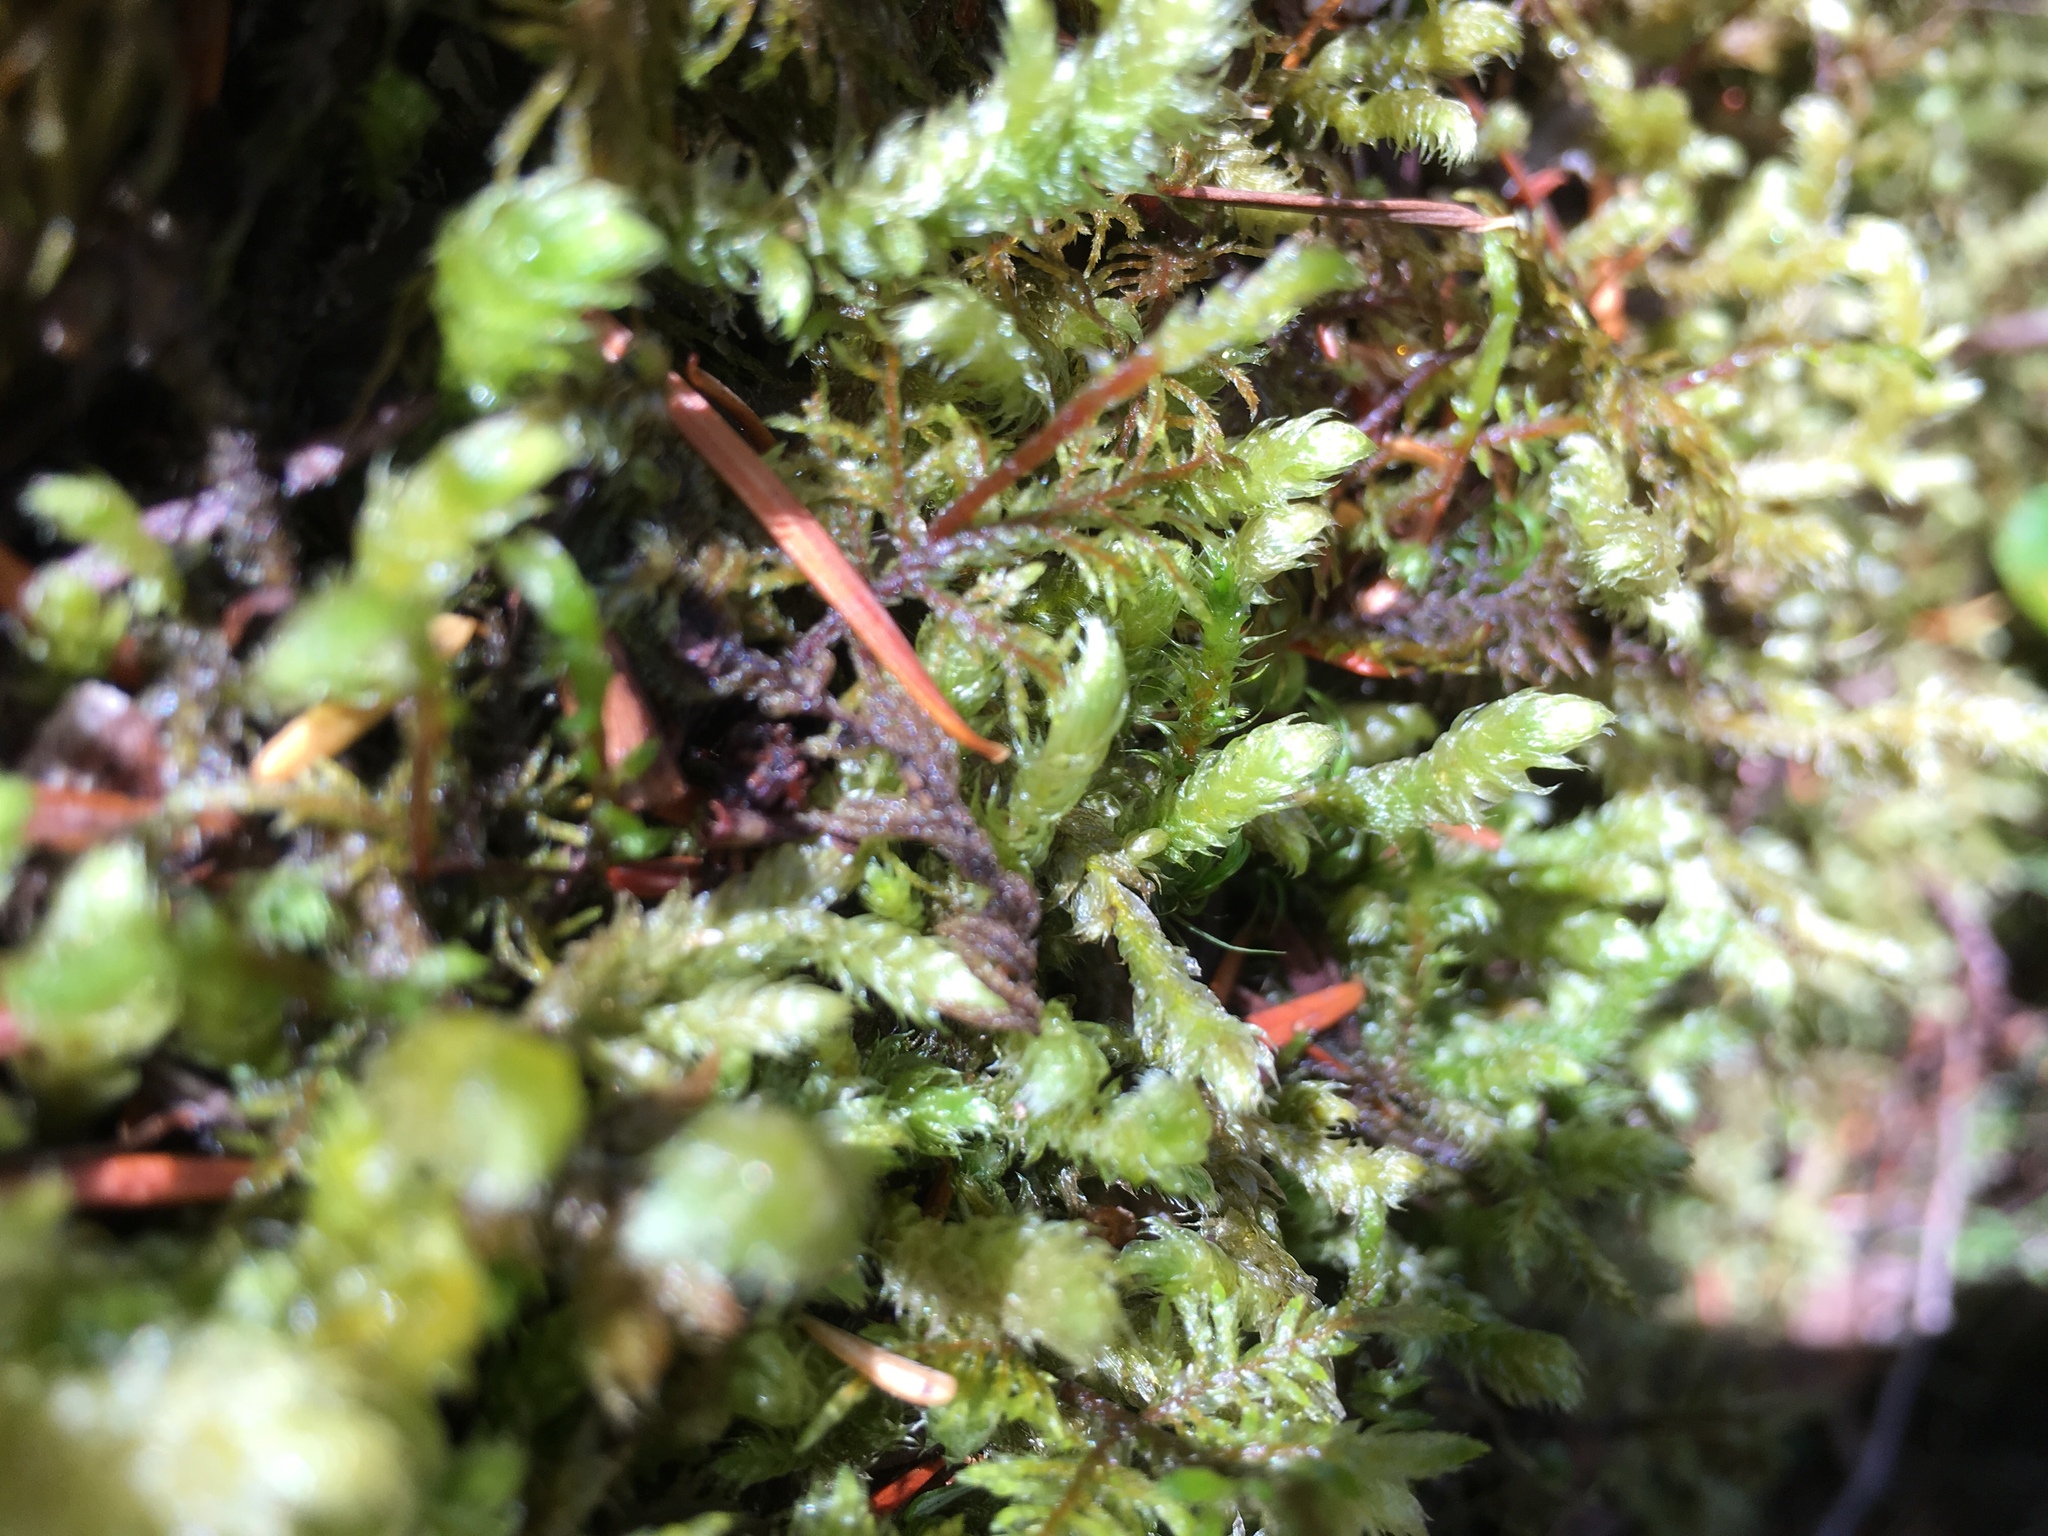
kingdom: Plantae
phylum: Bryophyta
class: Bryopsida
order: Hypnales
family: Hylocomiaceae
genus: Rhytidiopsis
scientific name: Rhytidiopsis robusta
